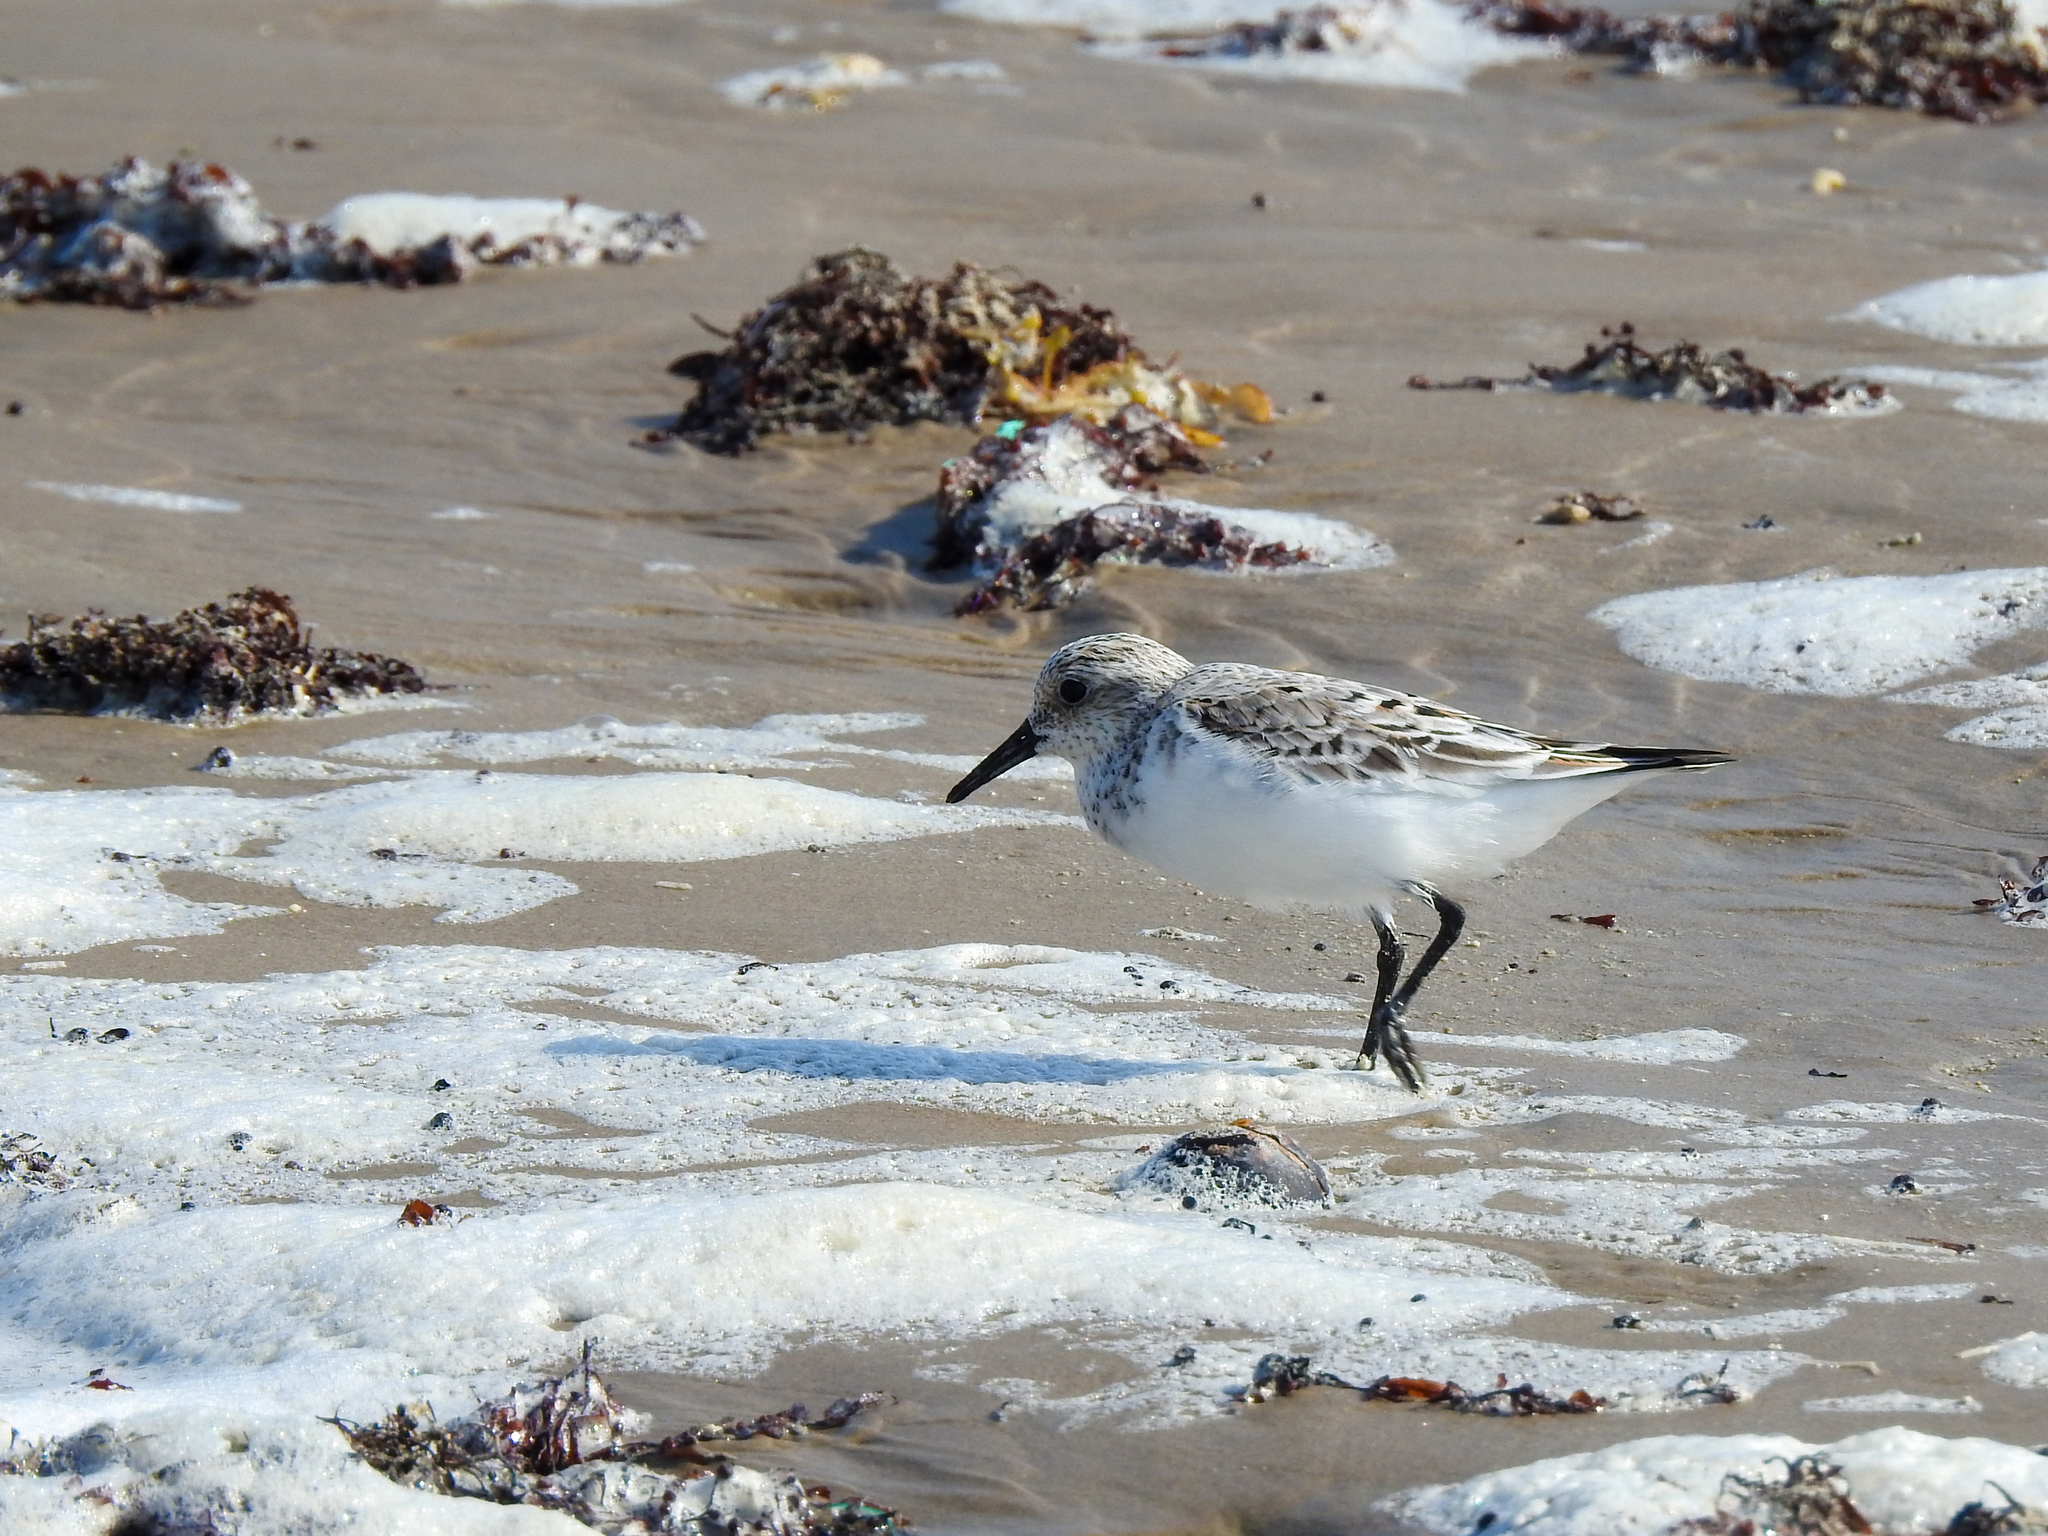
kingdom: Animalia
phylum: Chordata
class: Aves
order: Charadriiformes
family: Scolopacidae
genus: Calidris
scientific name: Calidris alba
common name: Sanderling
